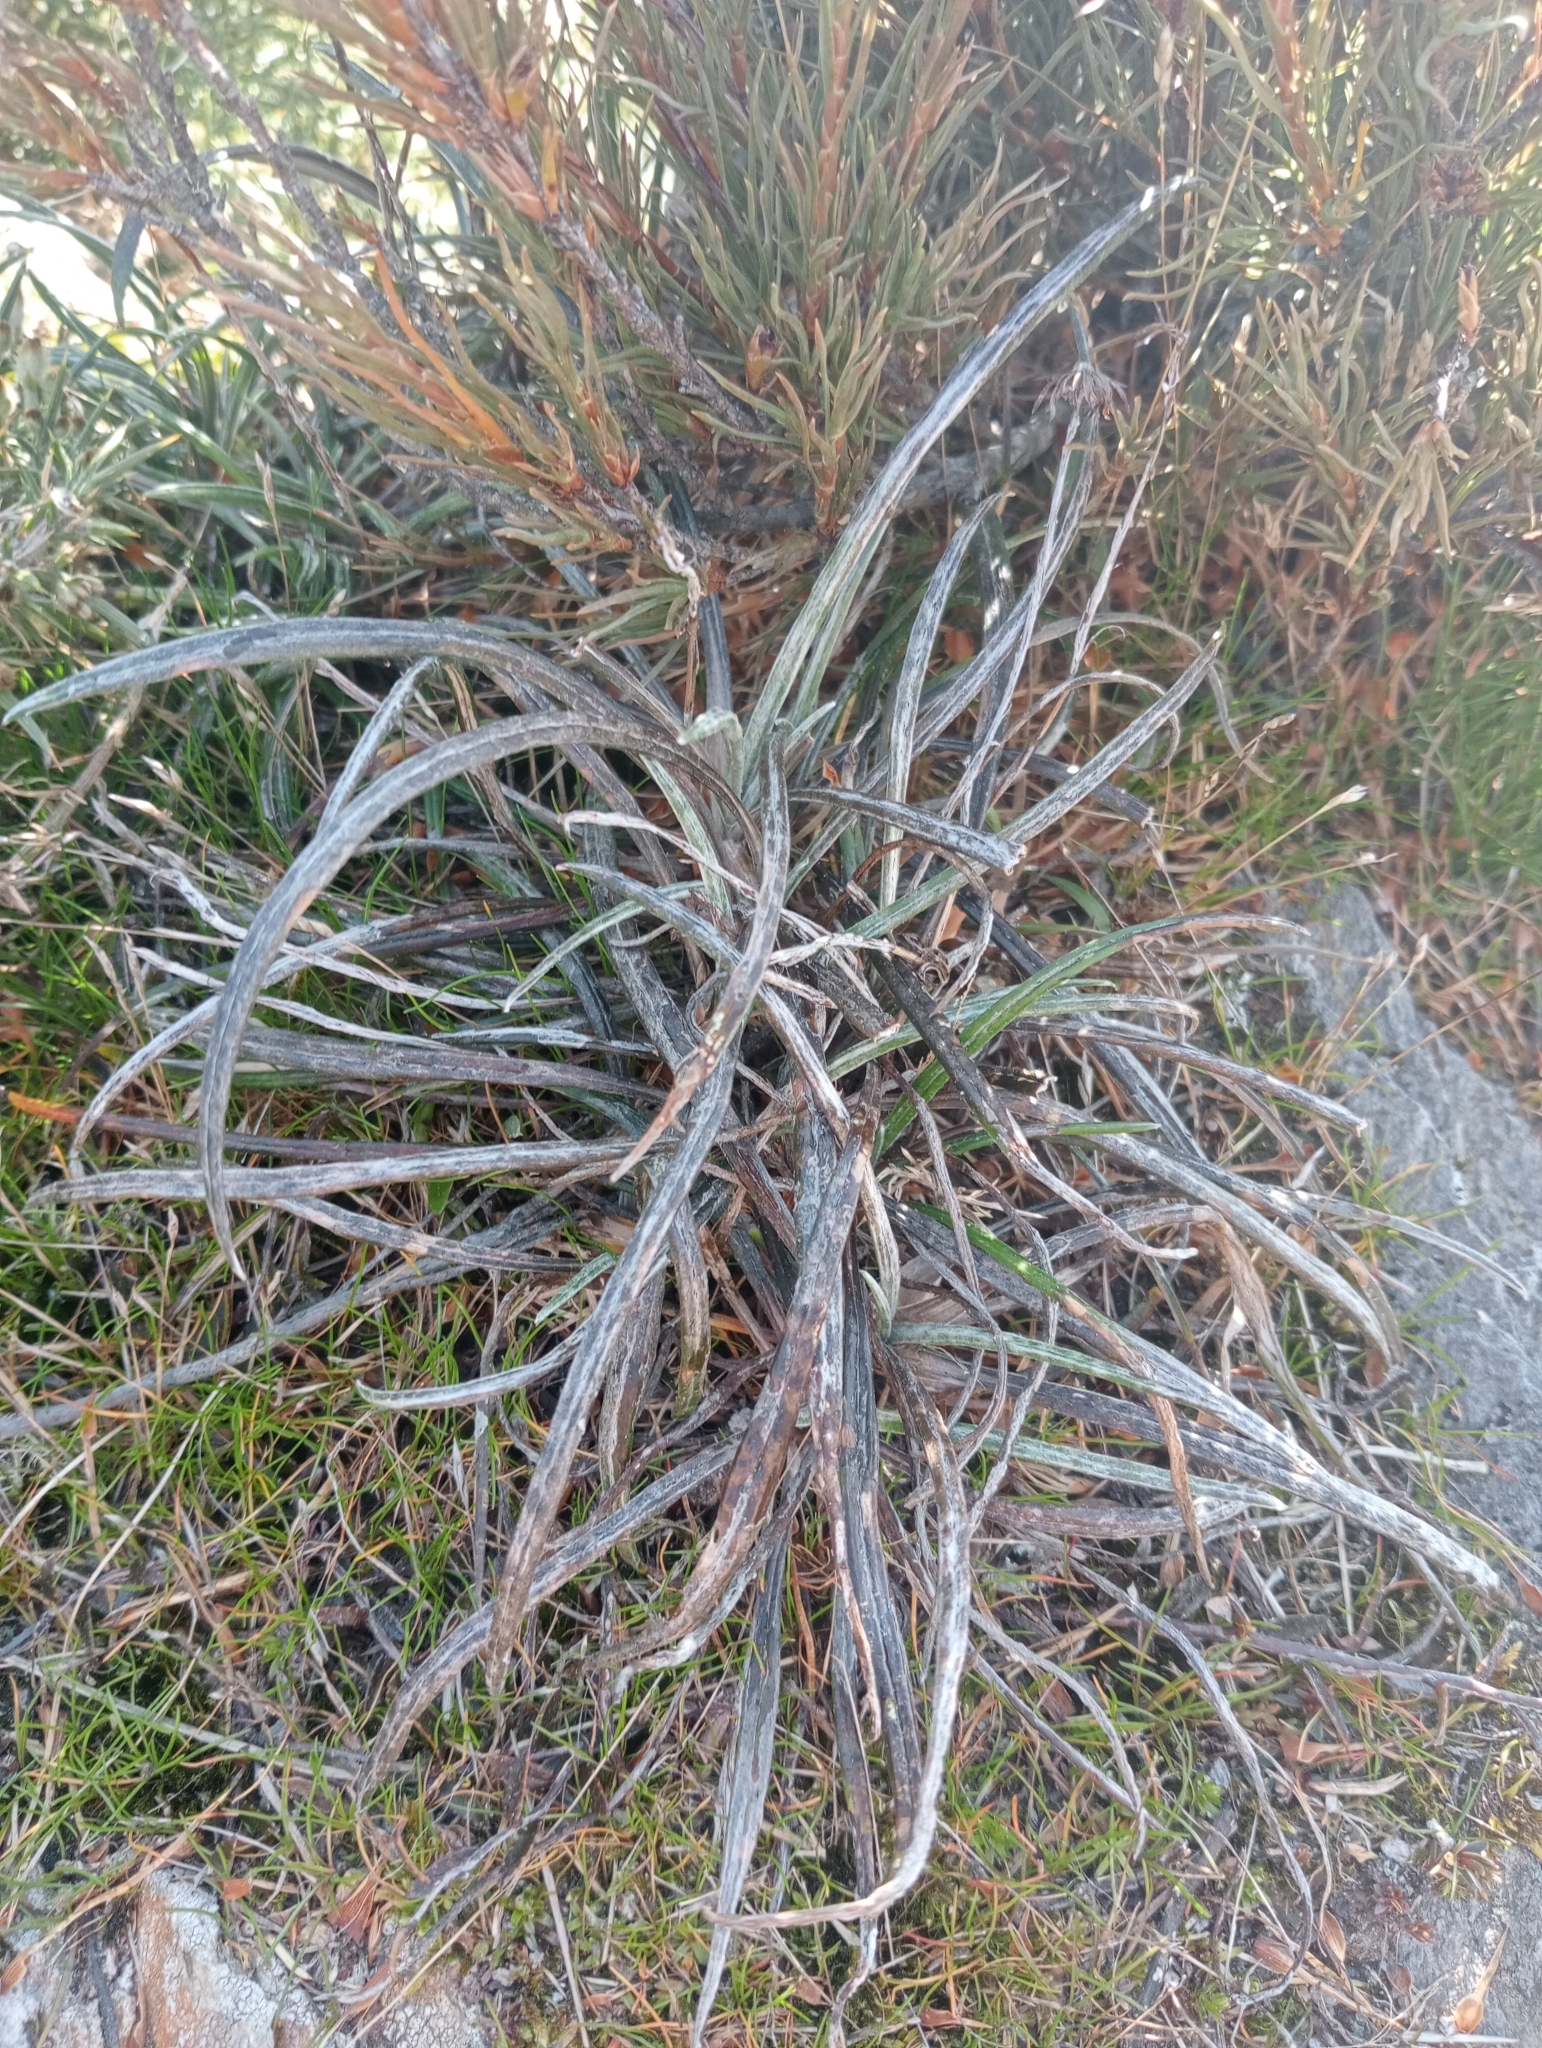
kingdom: Plantae
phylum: Tracheophyta
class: Magnoliopsida
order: Asterales
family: Asteraceae
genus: Celmisia
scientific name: Celmisia gracilenta
